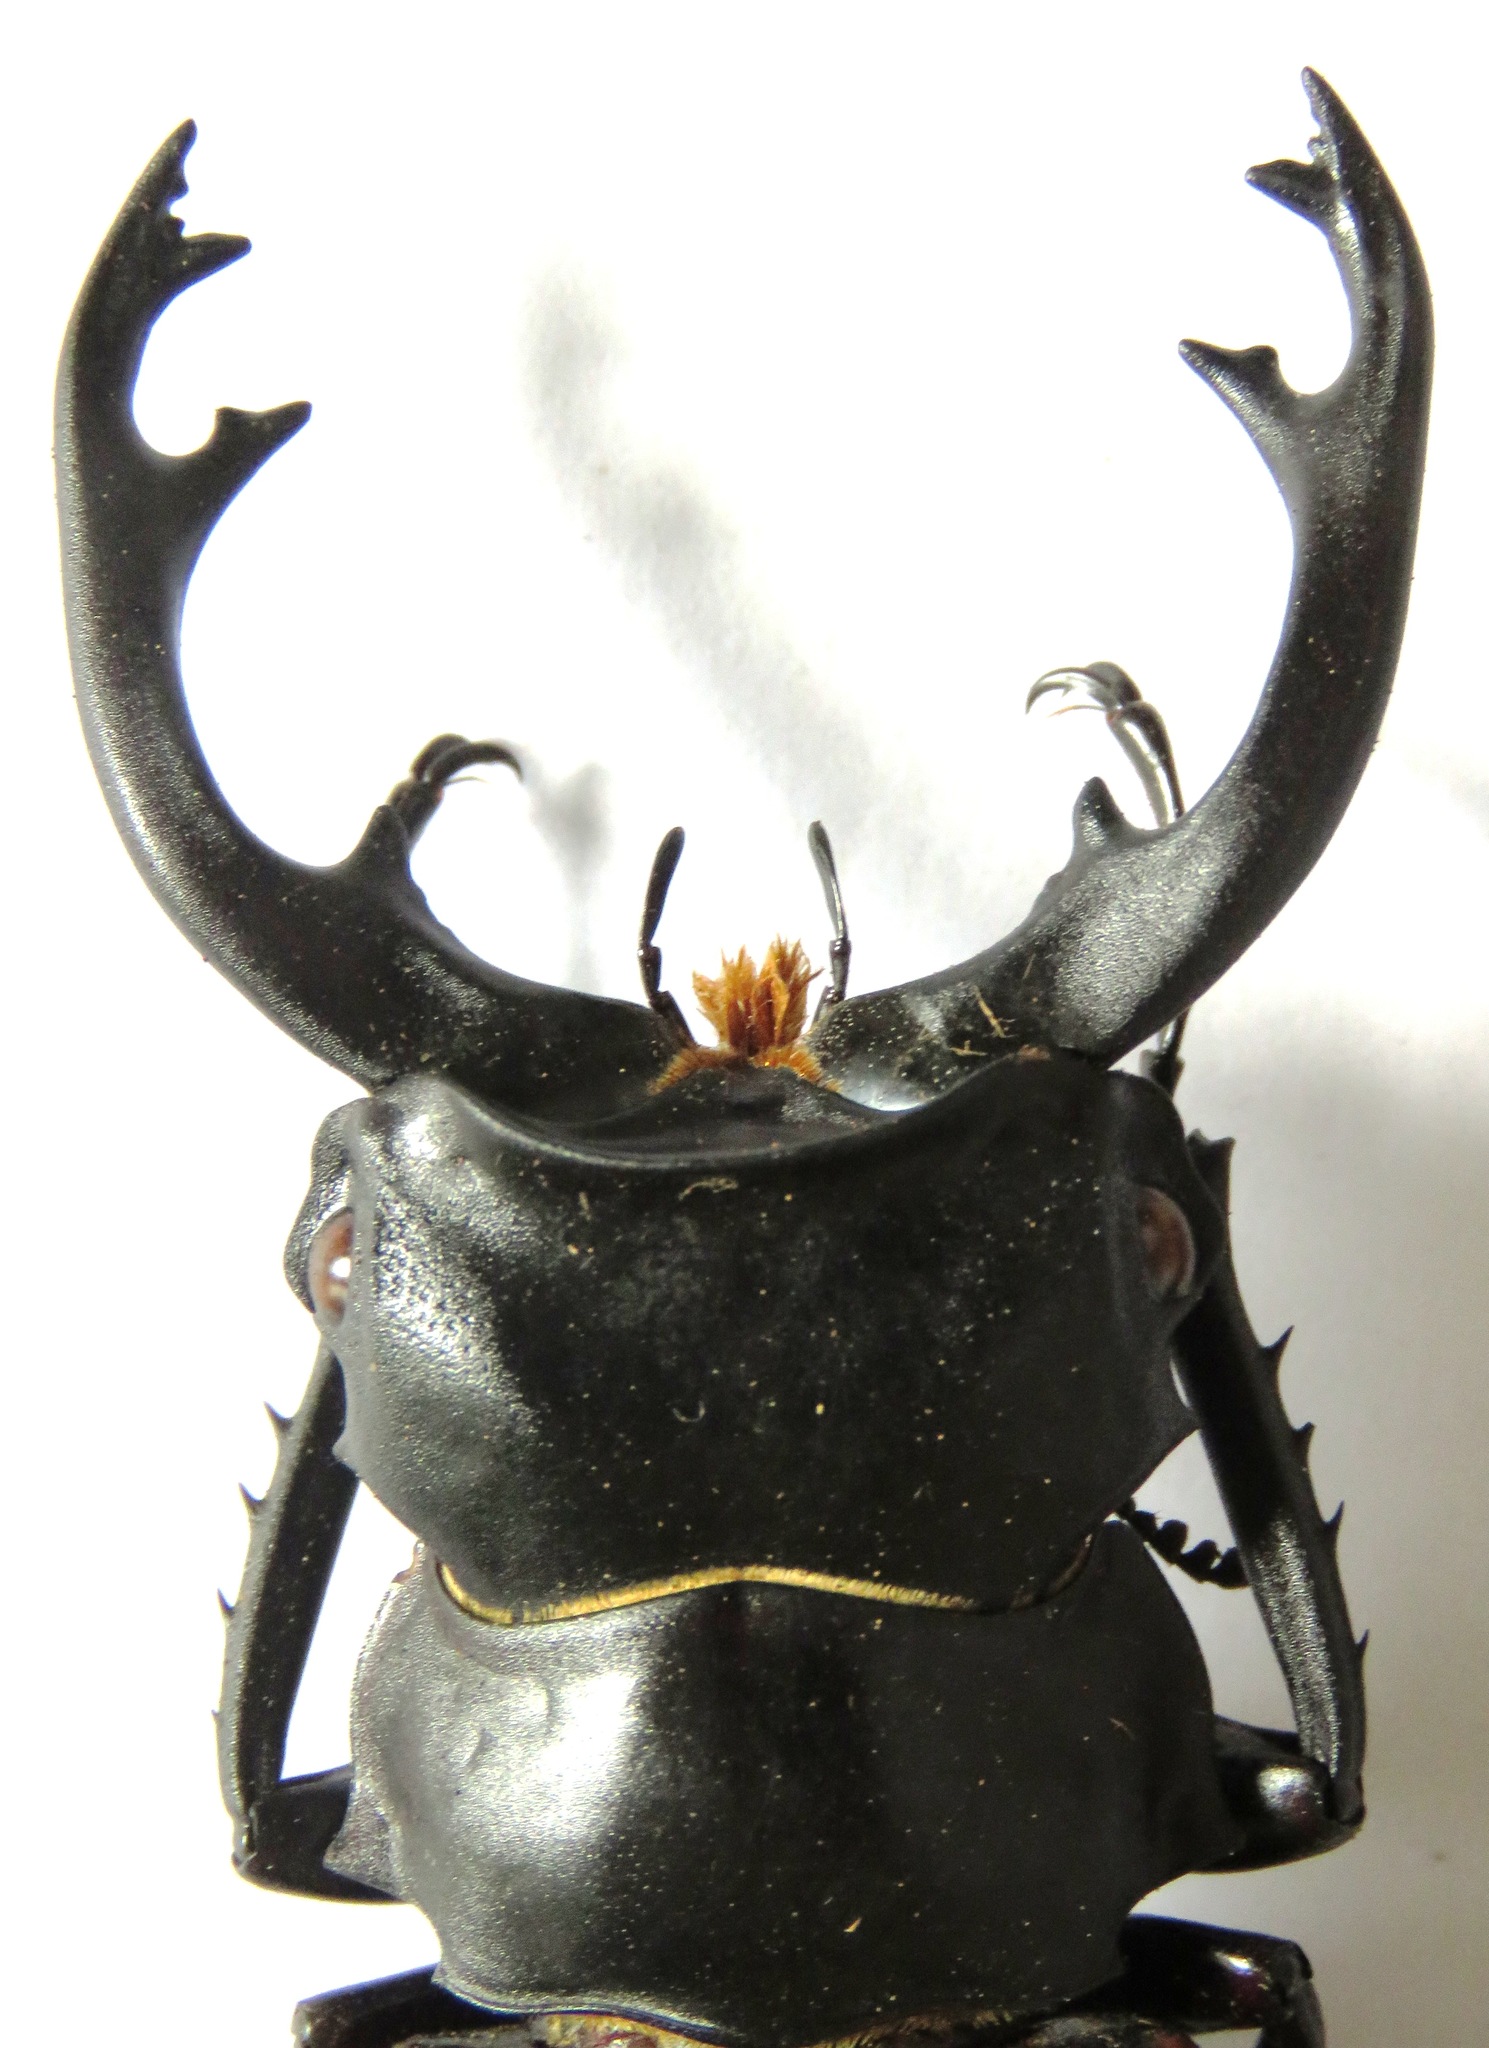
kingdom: Animalia
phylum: Arthropoda
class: Insecta
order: Coleoptera
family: Lucanidae
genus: Odontolabis
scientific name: Odontolabis cuvera
